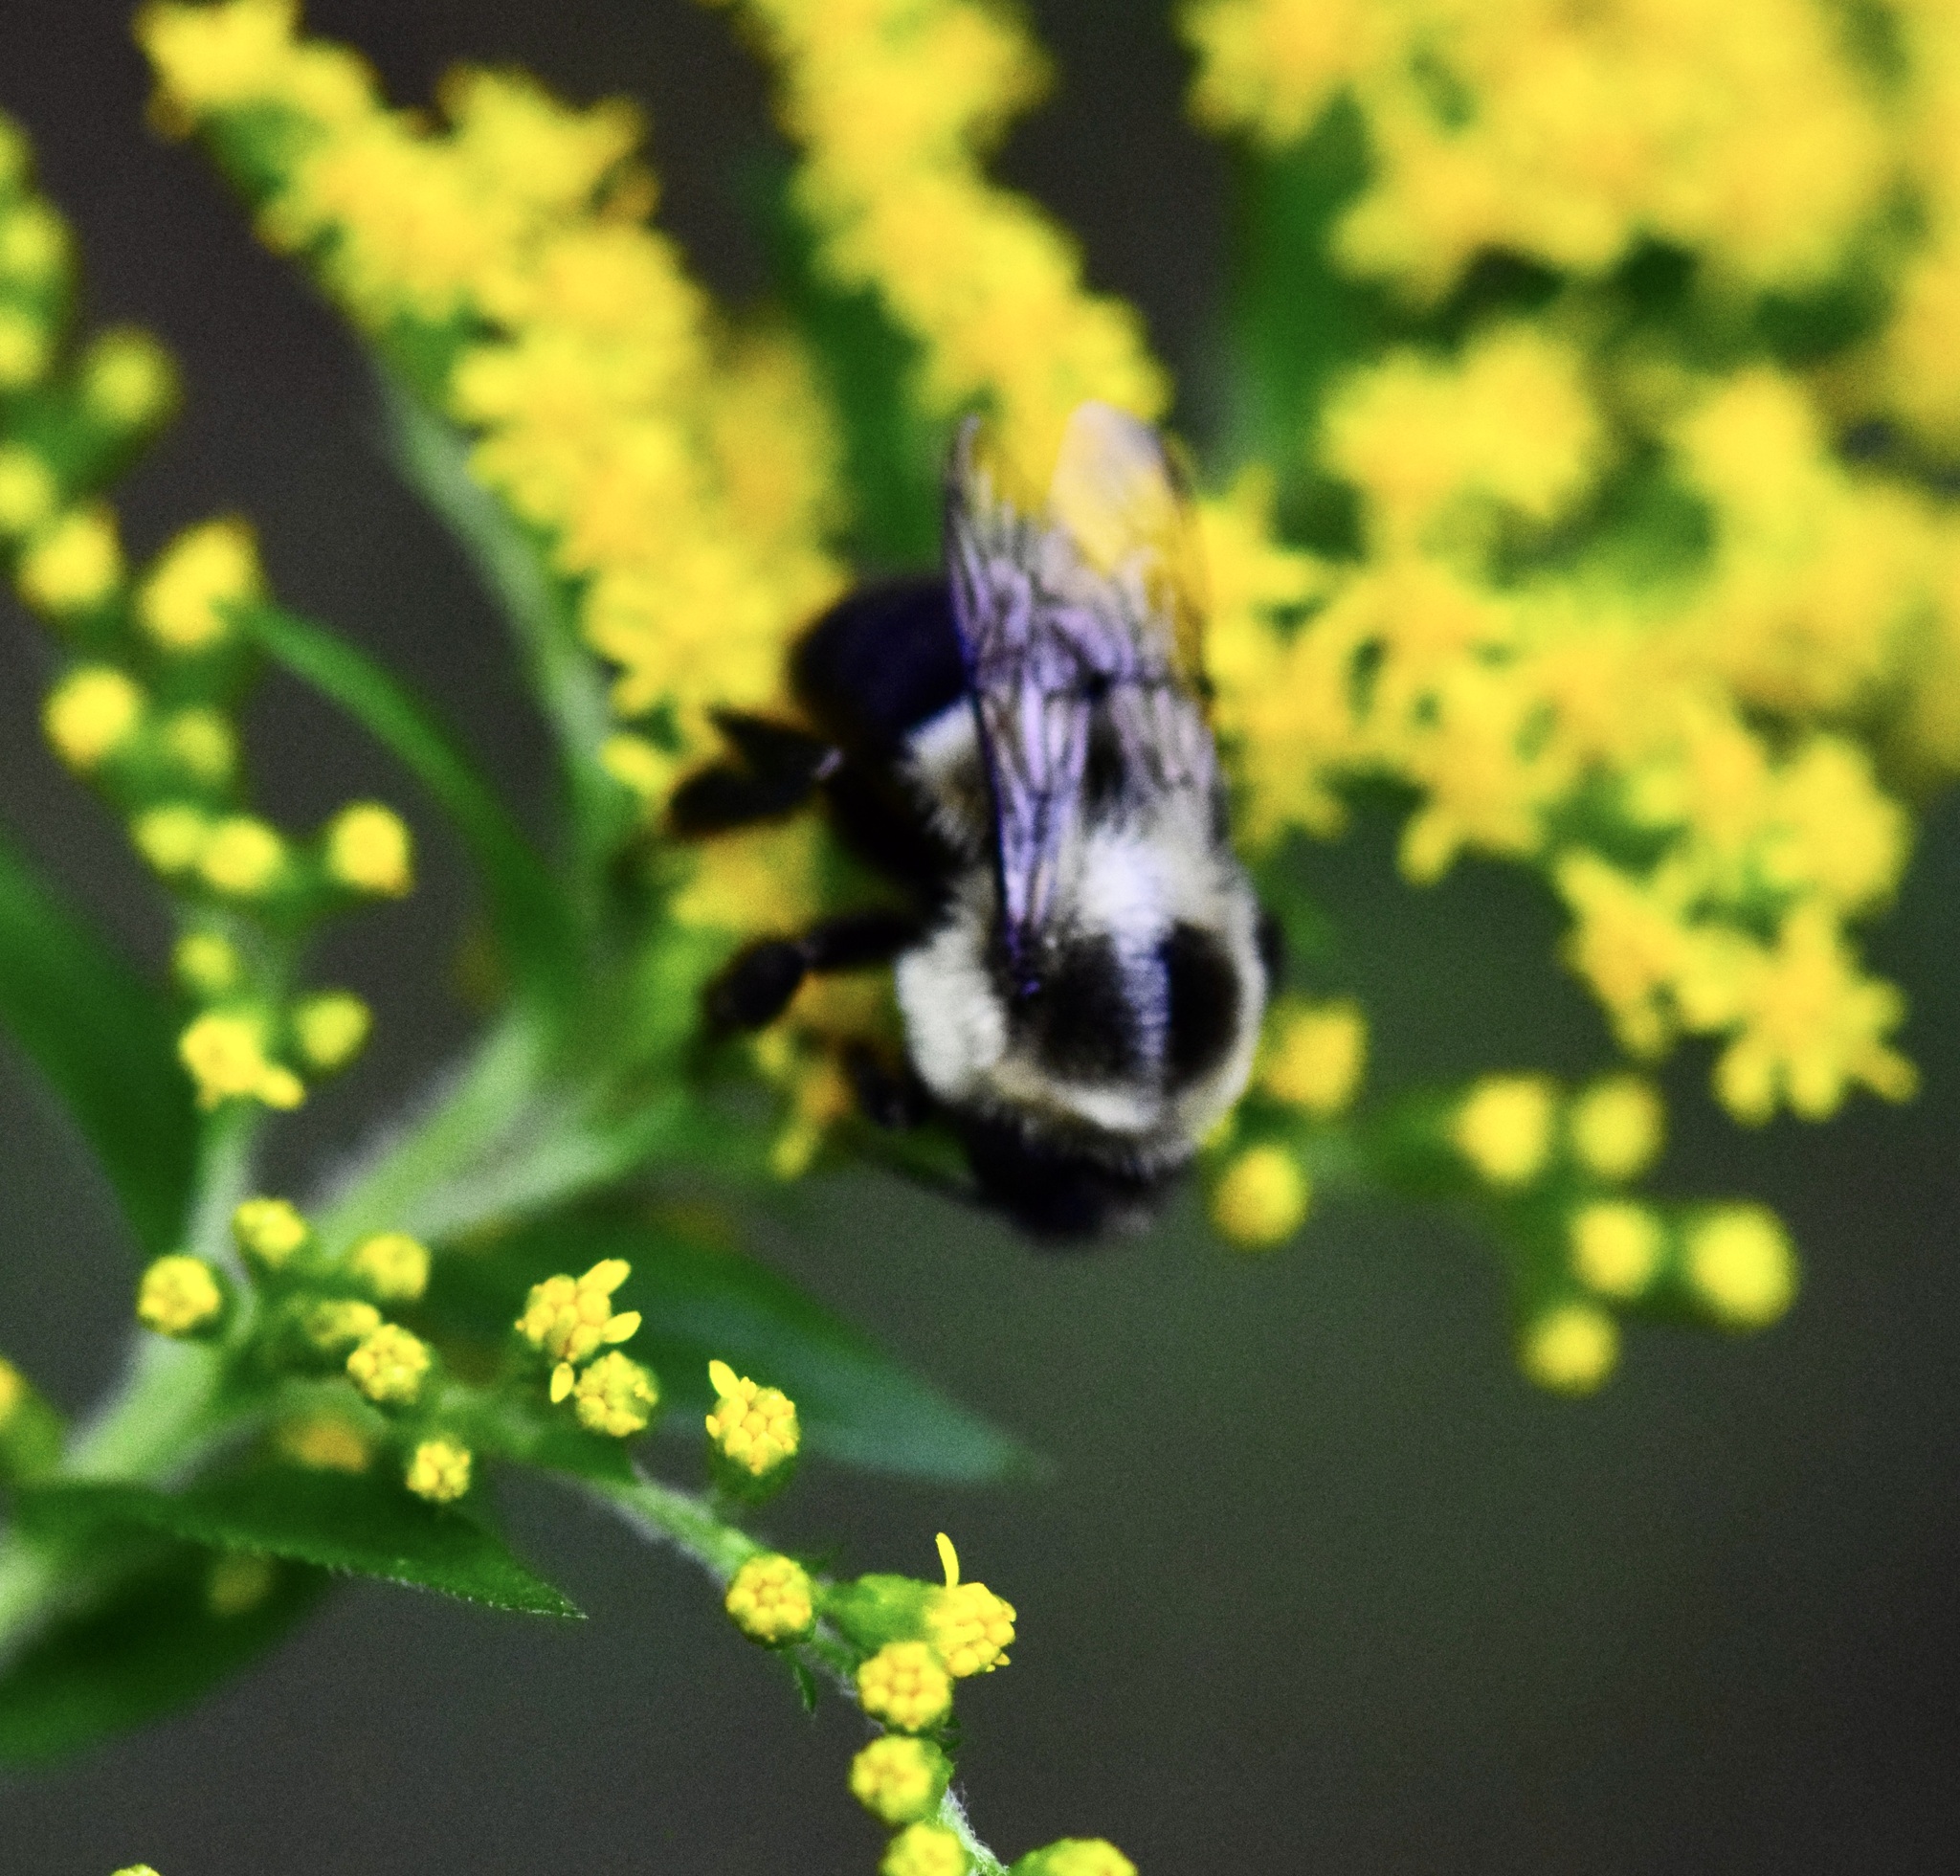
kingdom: Animalia
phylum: Arthropoda
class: Insecta
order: Hymenoptera
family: Apidae
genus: Bombus
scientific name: Bombus impatiens
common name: Common eastern bumble bee
